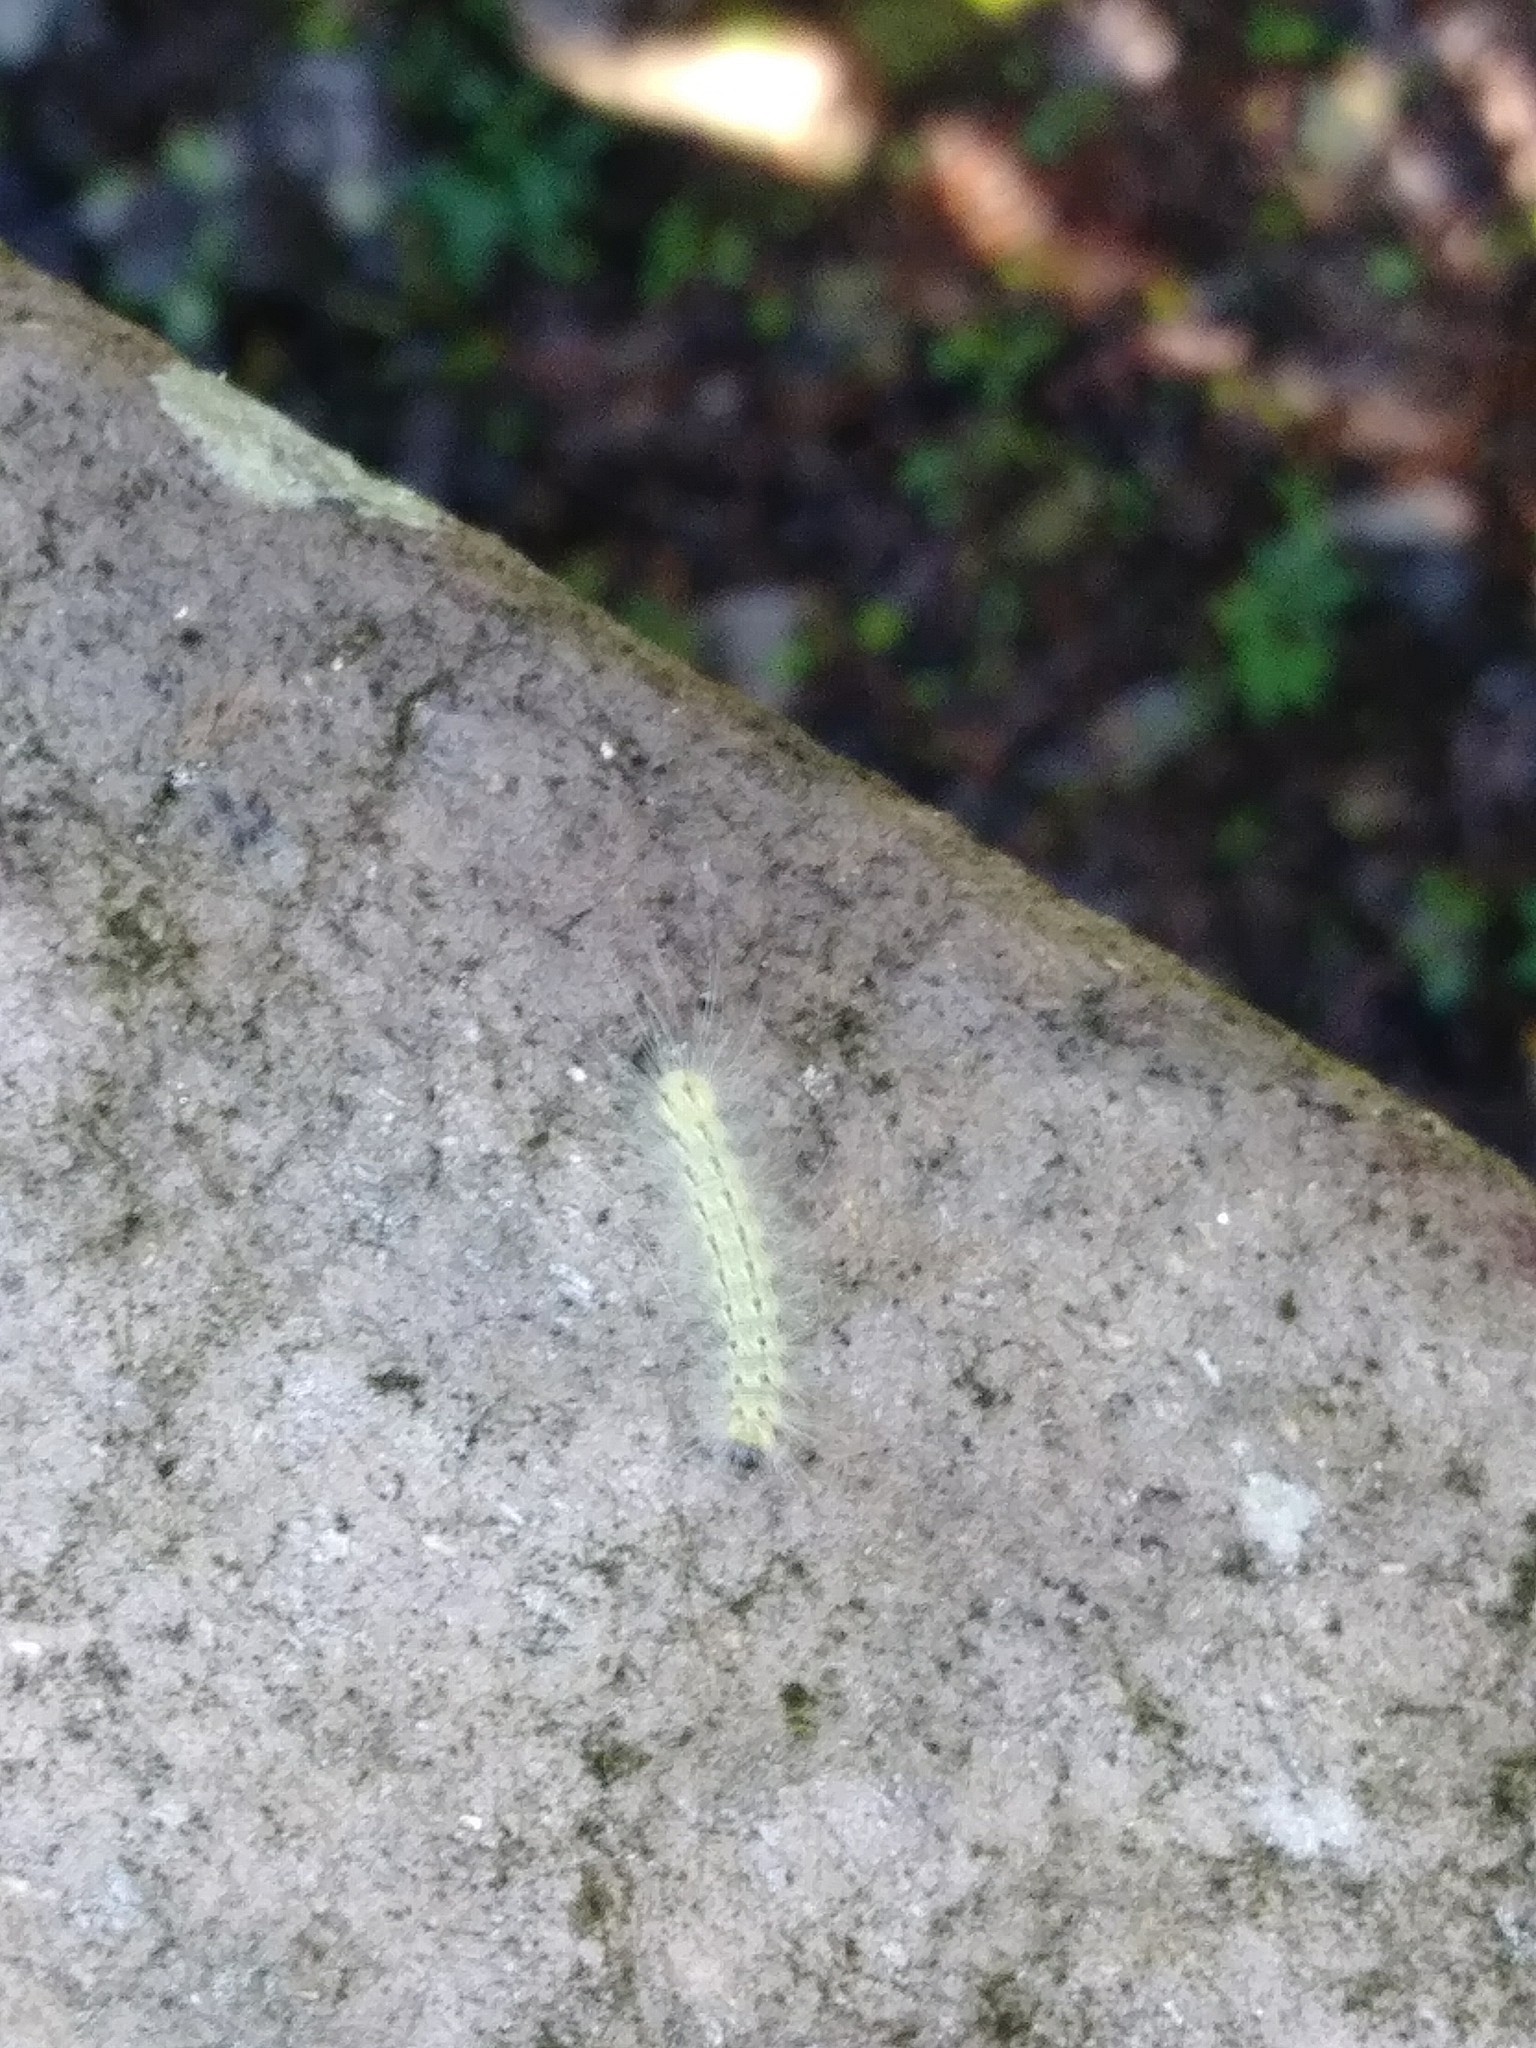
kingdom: Animalia
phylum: Arthropoda
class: Insecta
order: Lepidoptera
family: Erebidae
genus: Hyphantria
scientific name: Hyphantria cunea
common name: American white moth
